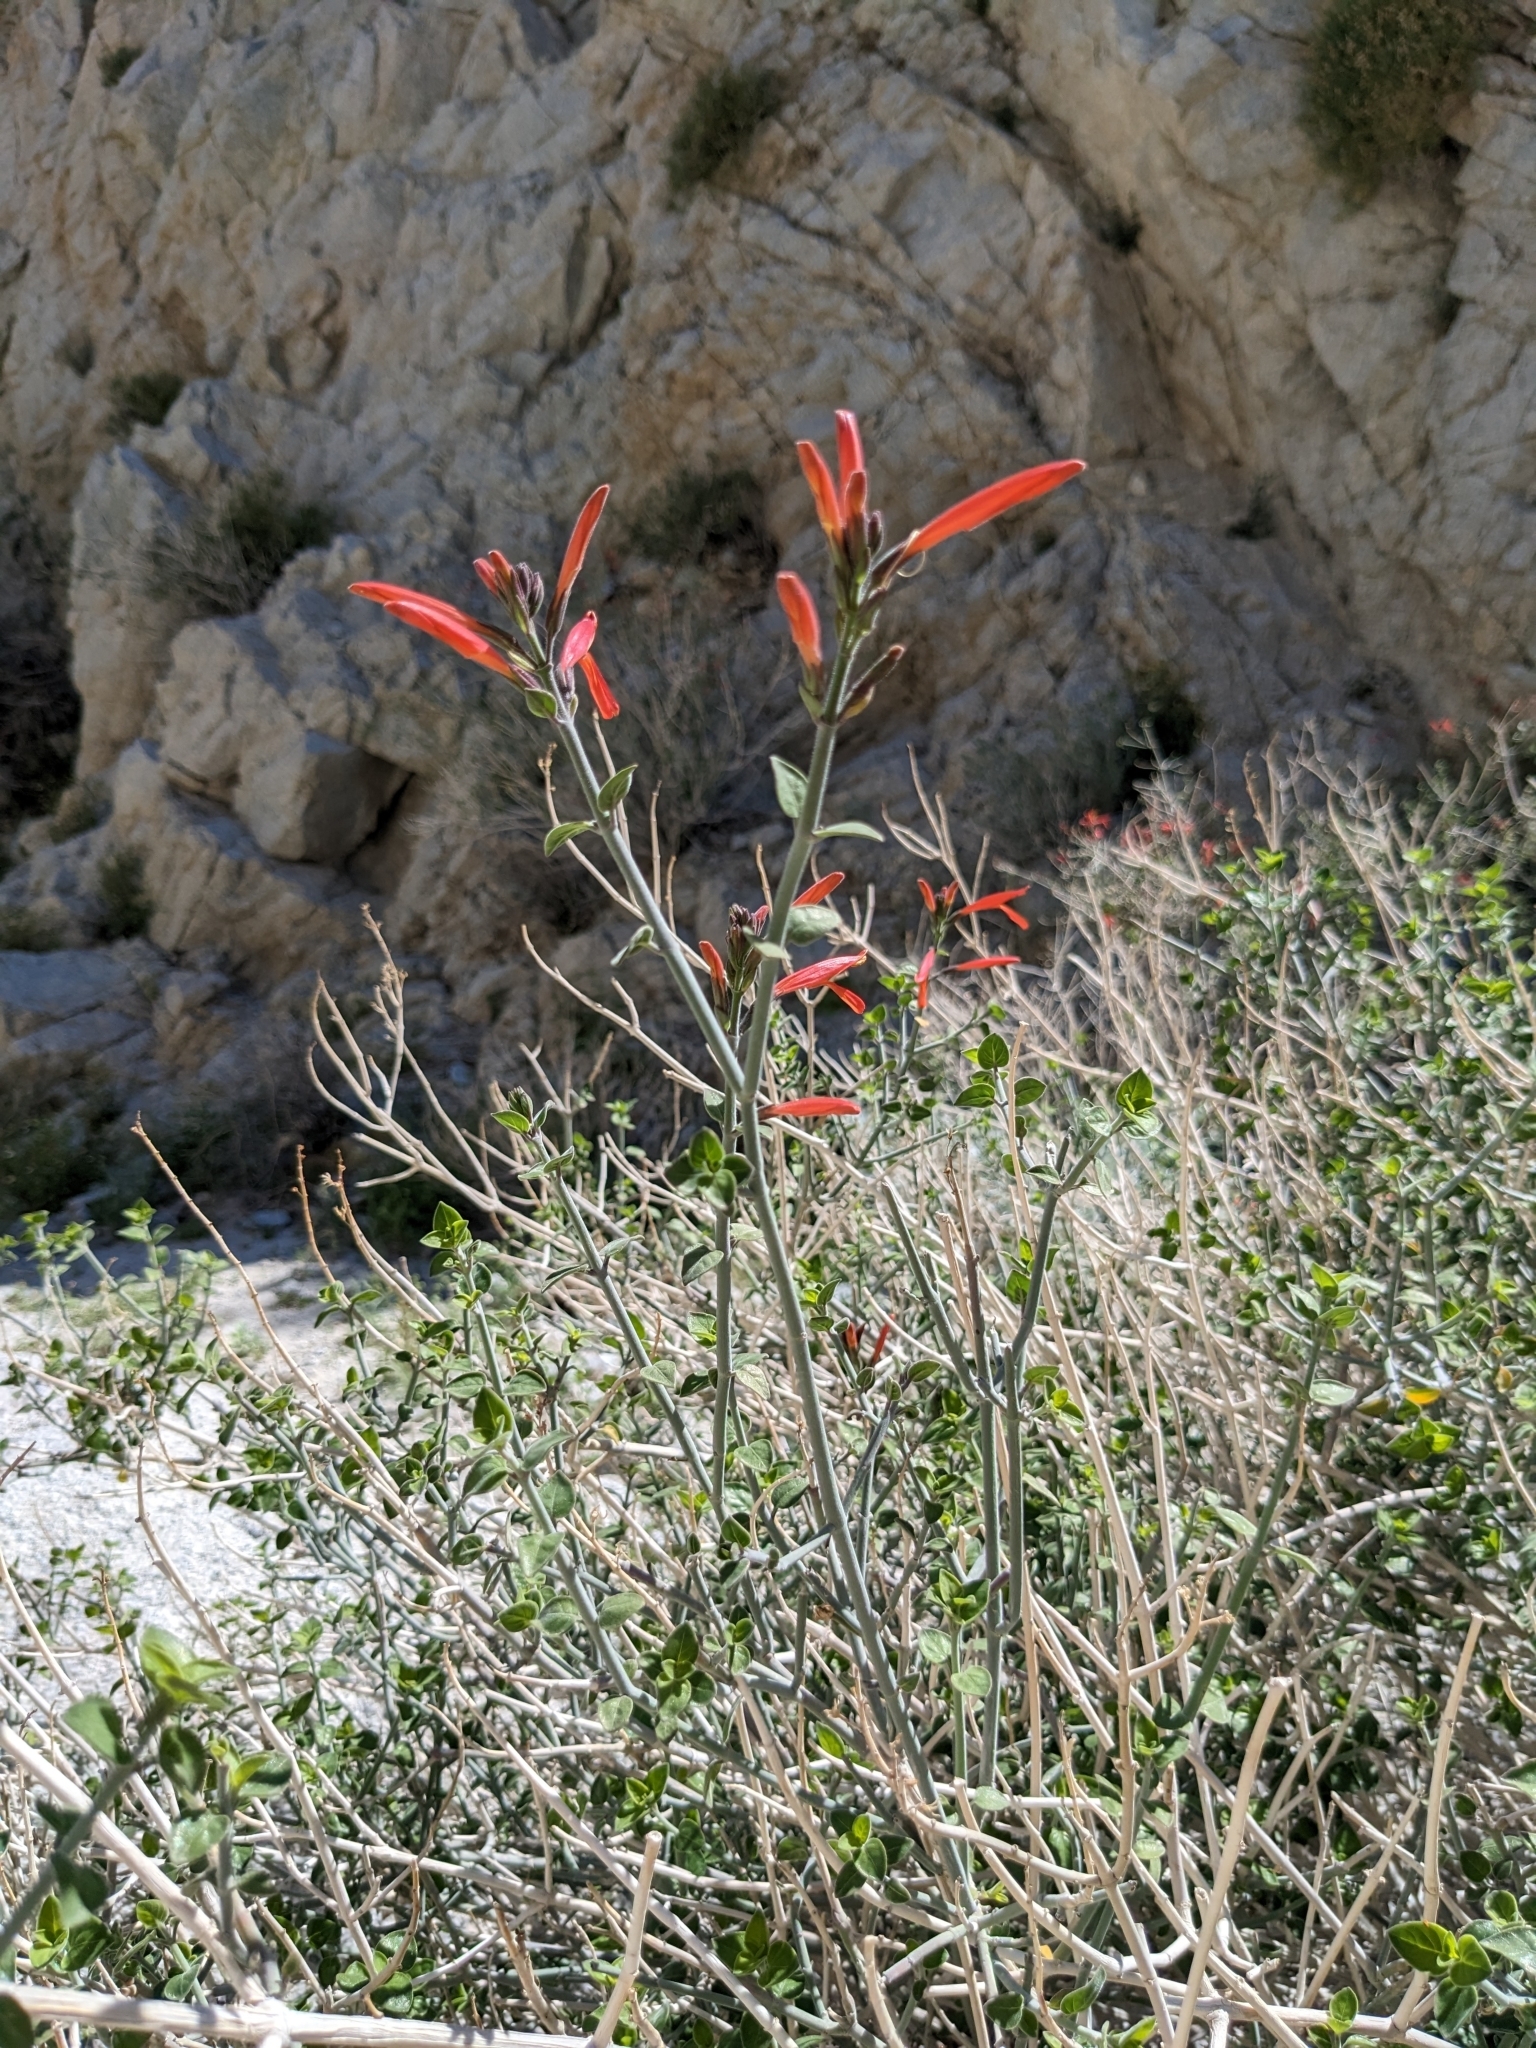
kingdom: Plantae
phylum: Tracheophyta
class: Magnoliopsida
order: Lamiales
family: Acanthaceae
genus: Justicia
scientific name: Justicia californica
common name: Chuparosa-honeysuckle
